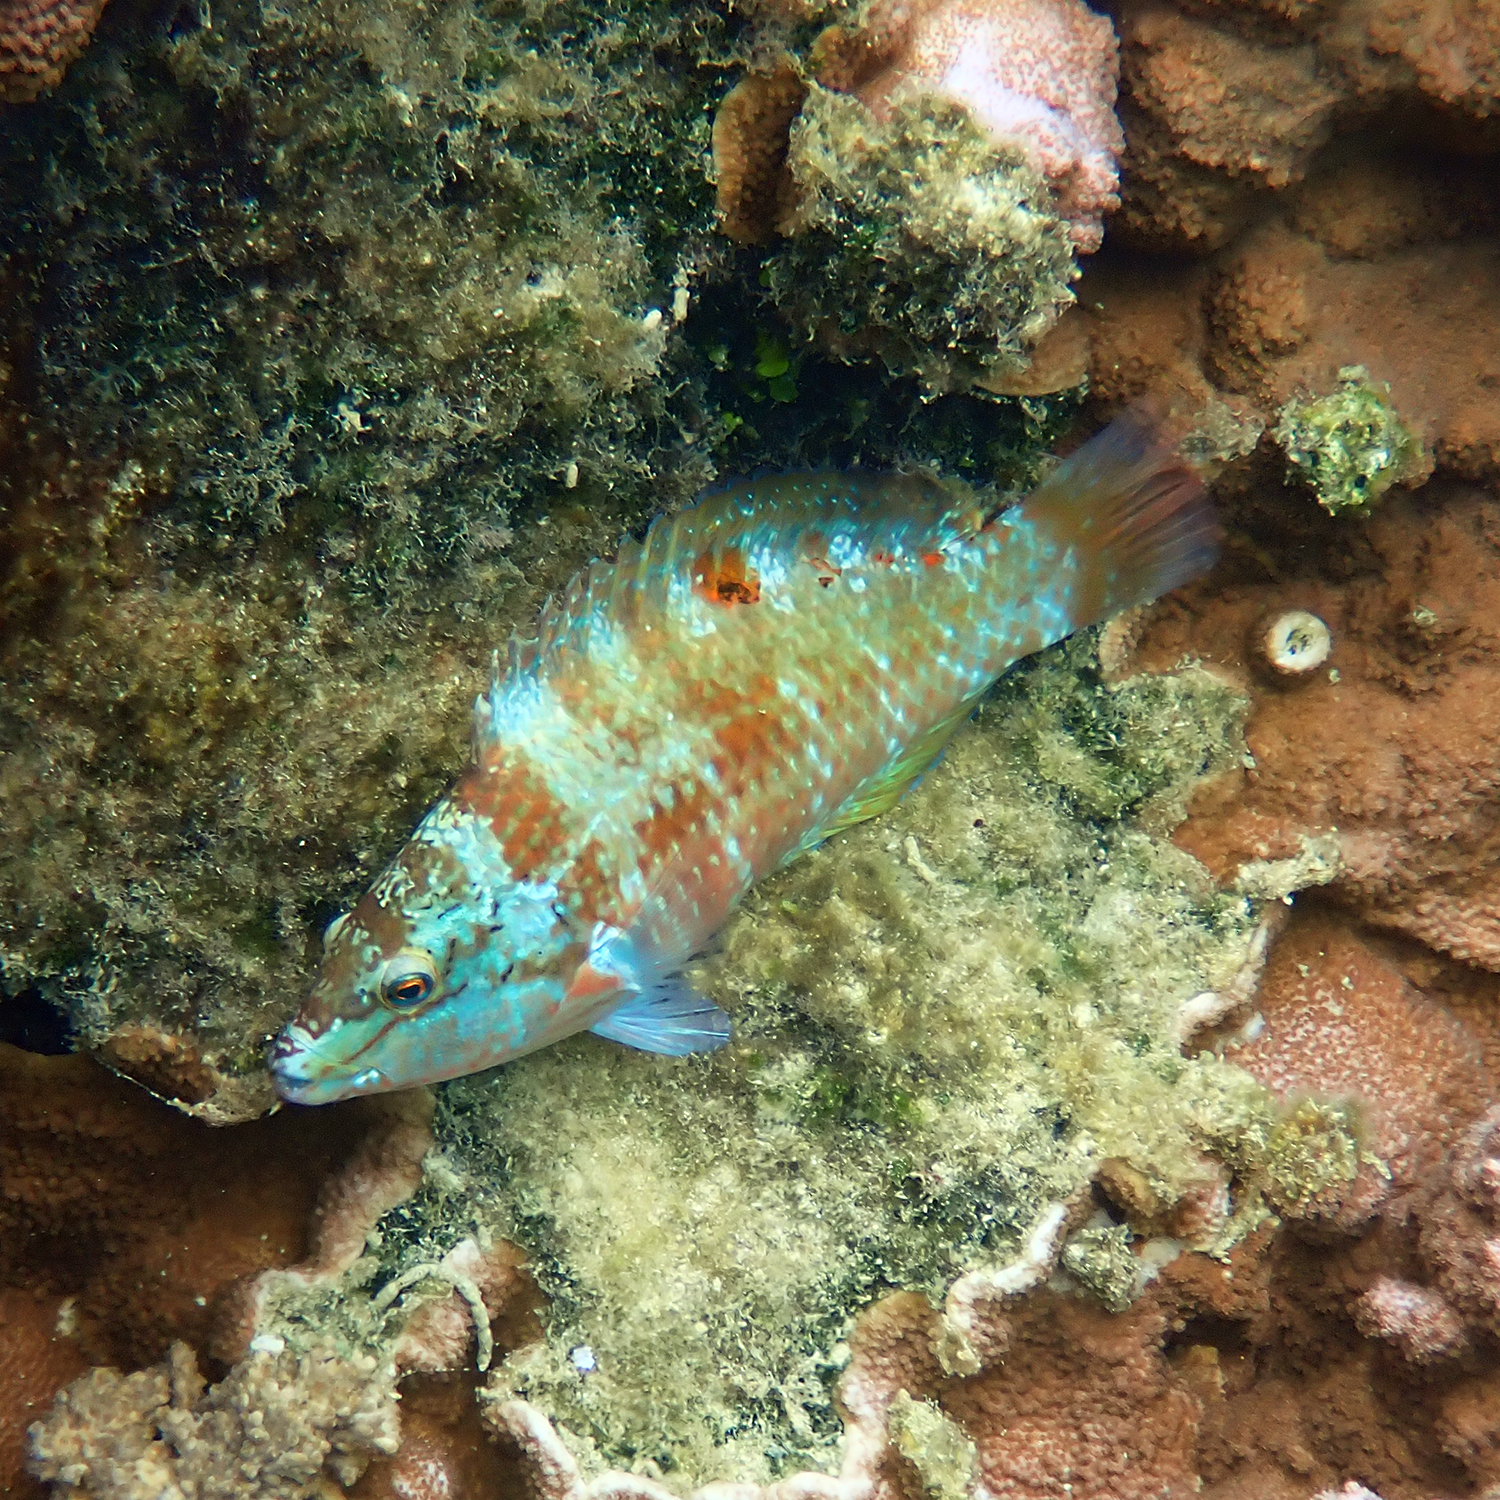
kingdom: Animalia
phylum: Chordata
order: Perciformes
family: Labridae
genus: Pseudolabrus
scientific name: Pseudolabrus luculentus
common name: Luculentus wrasse
